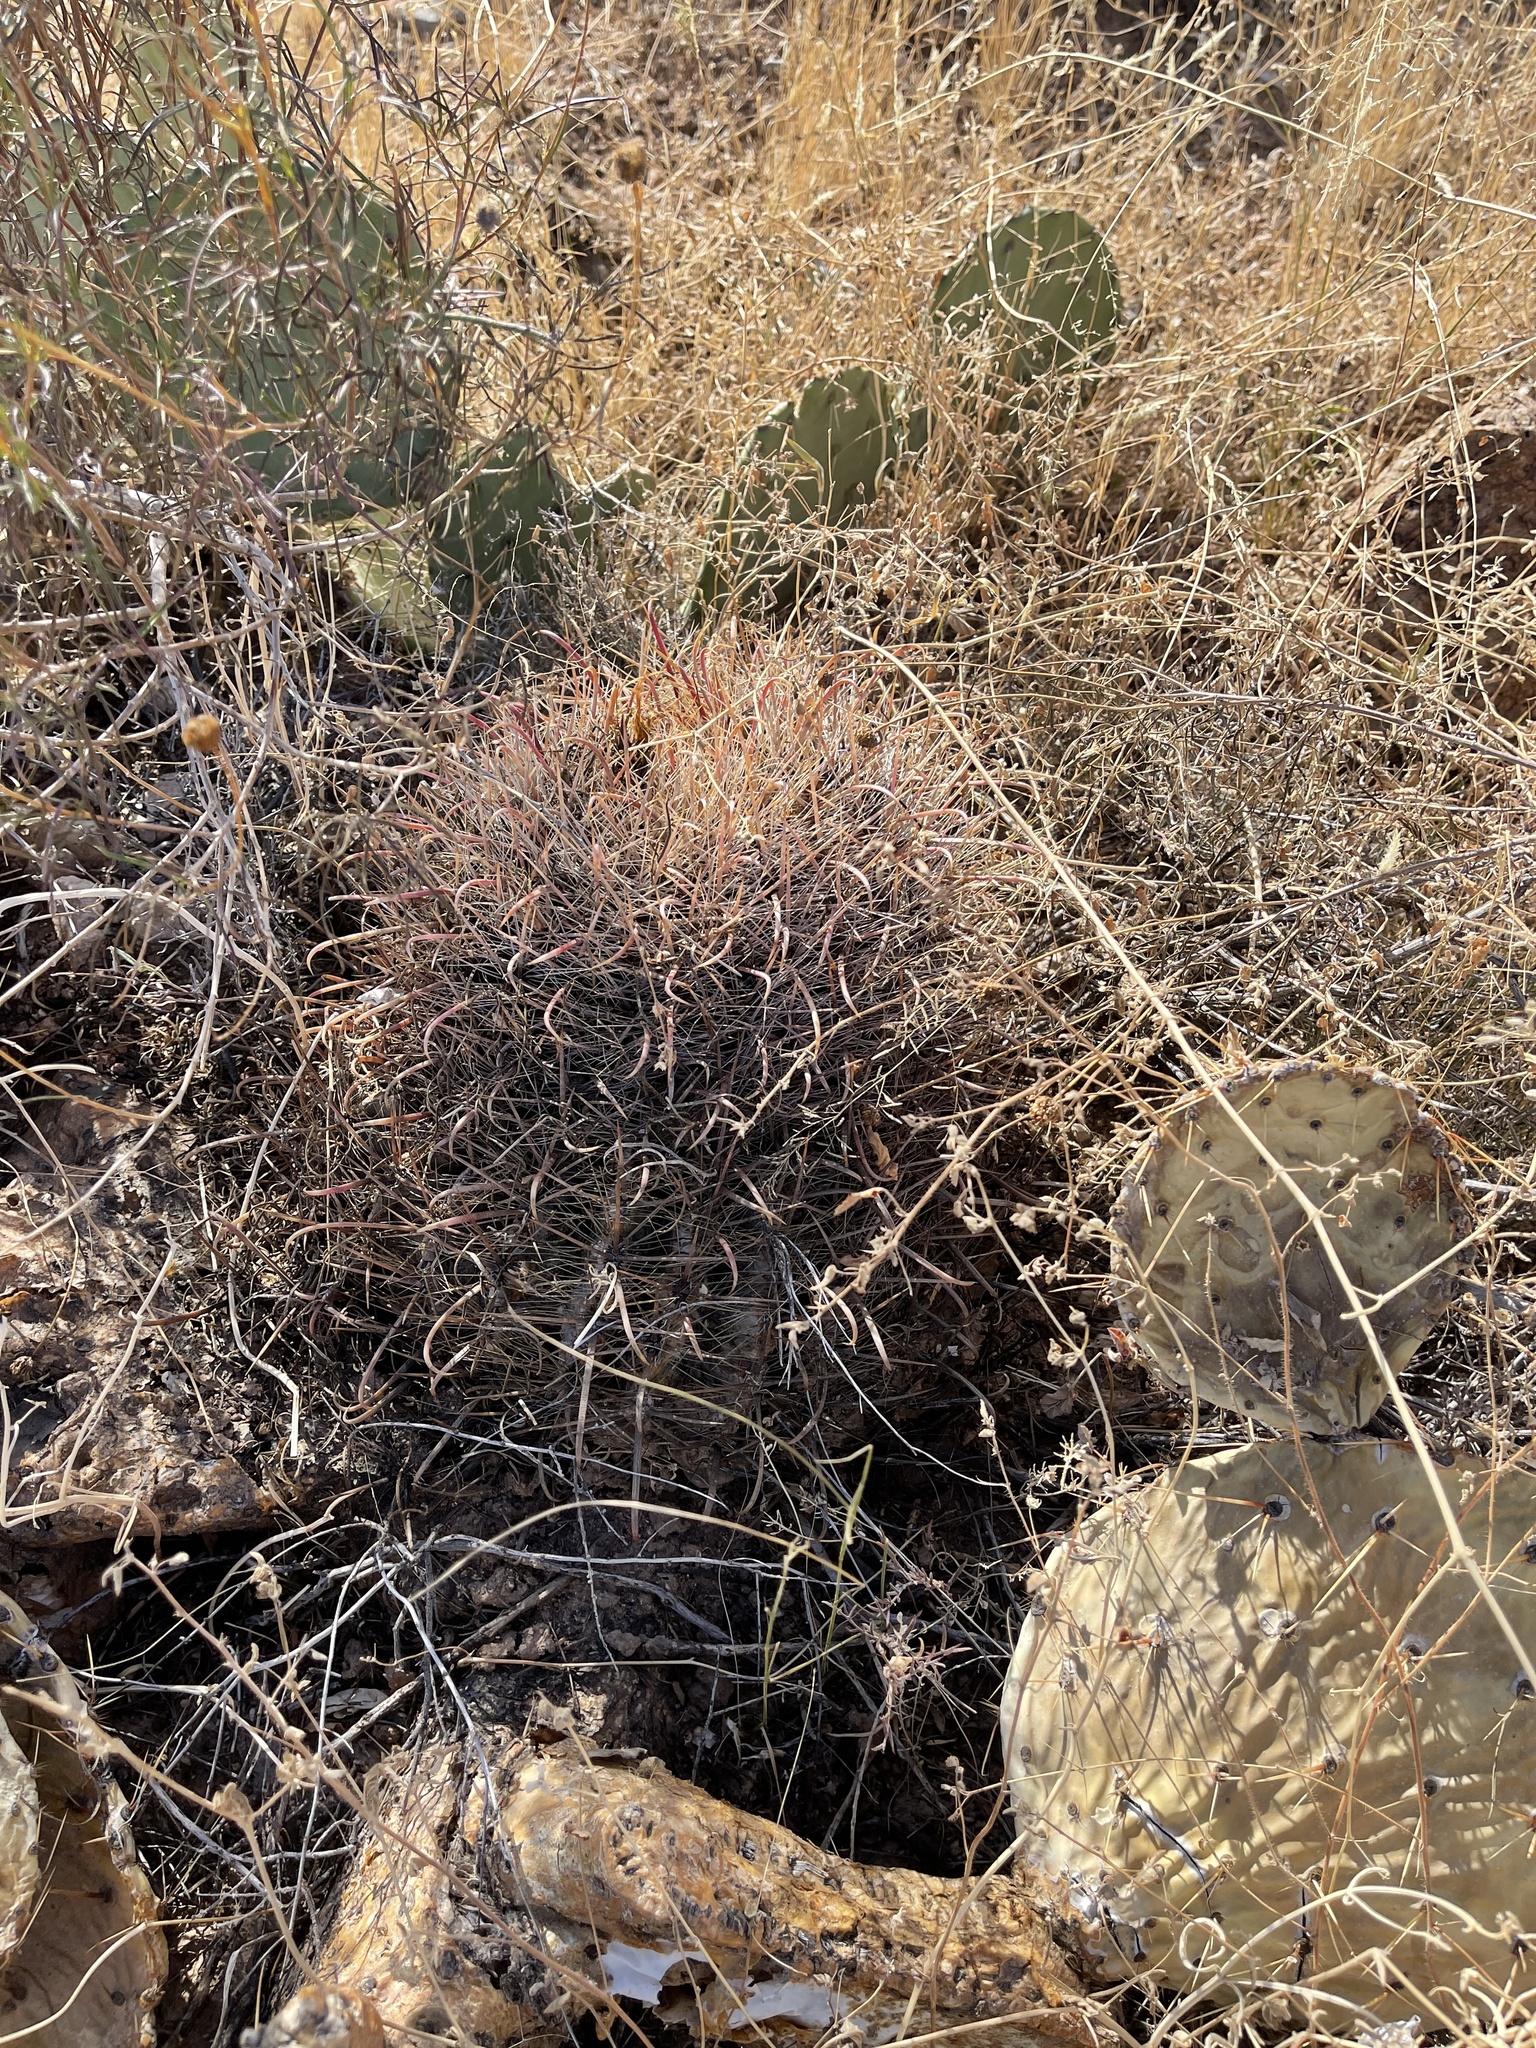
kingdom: Plantae
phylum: Tracheophyta
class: Magnoliopsida
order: Caryophyllales
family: Cactaceae
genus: Ferocactus
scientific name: Ferocactus wislizeni
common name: Candy barrel cactus
